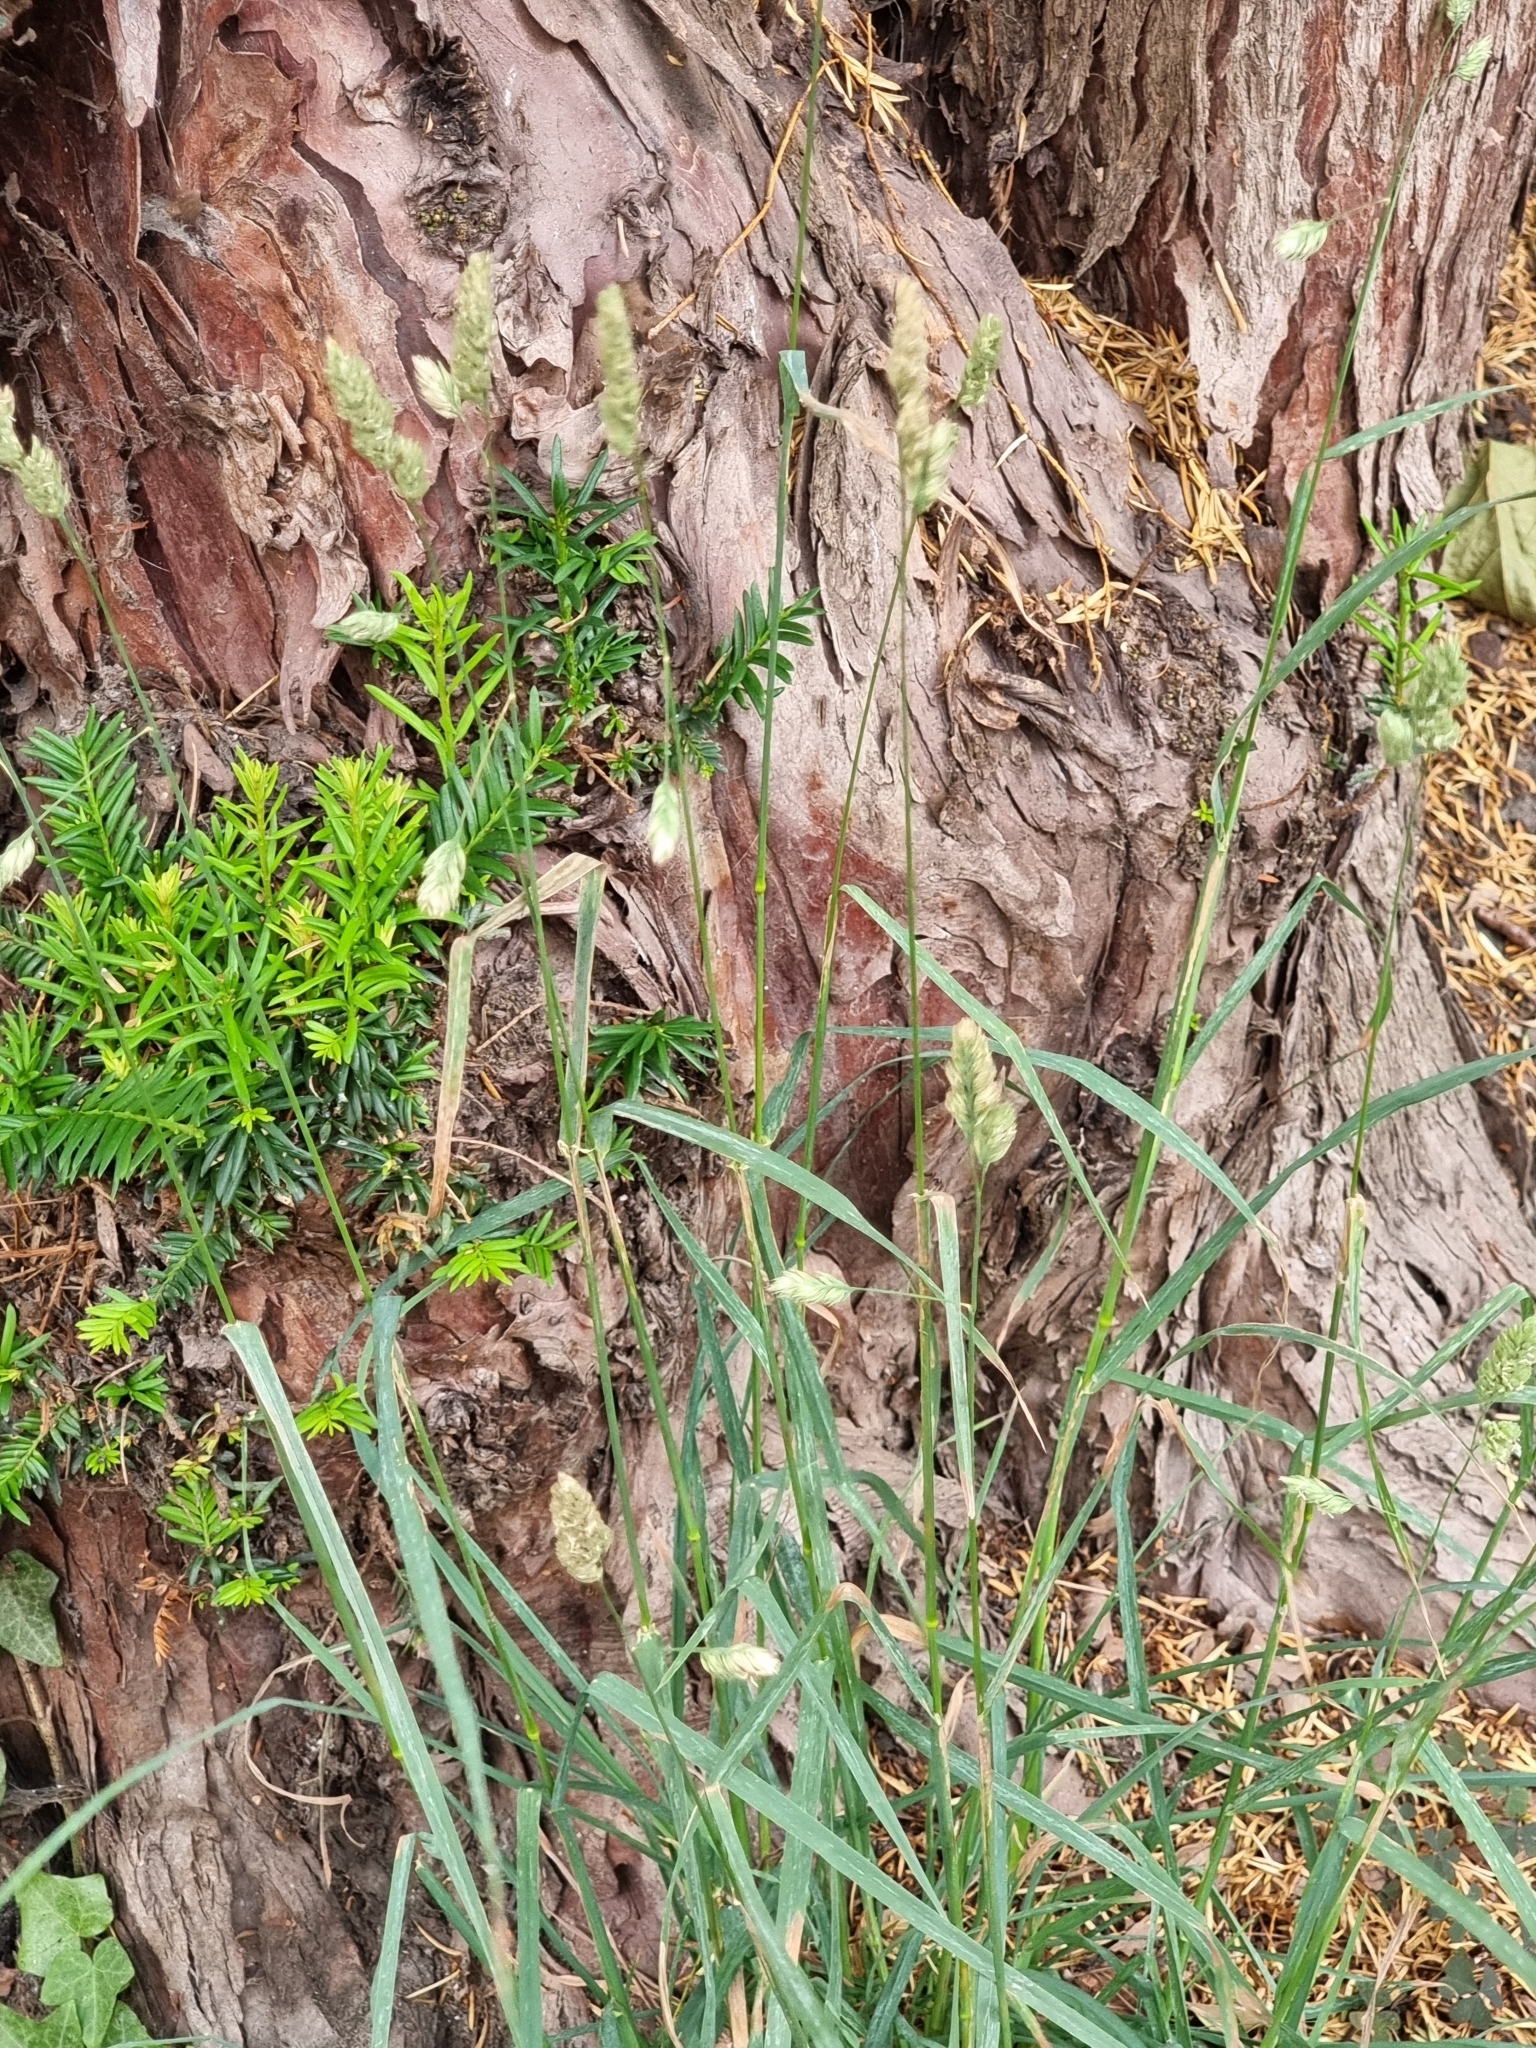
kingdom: Plantae
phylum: Tracheophyta
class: Liliopsida
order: Poales
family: Poaceae
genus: Dactylis
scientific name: Dactylis glomerata
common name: Orchardgrass
